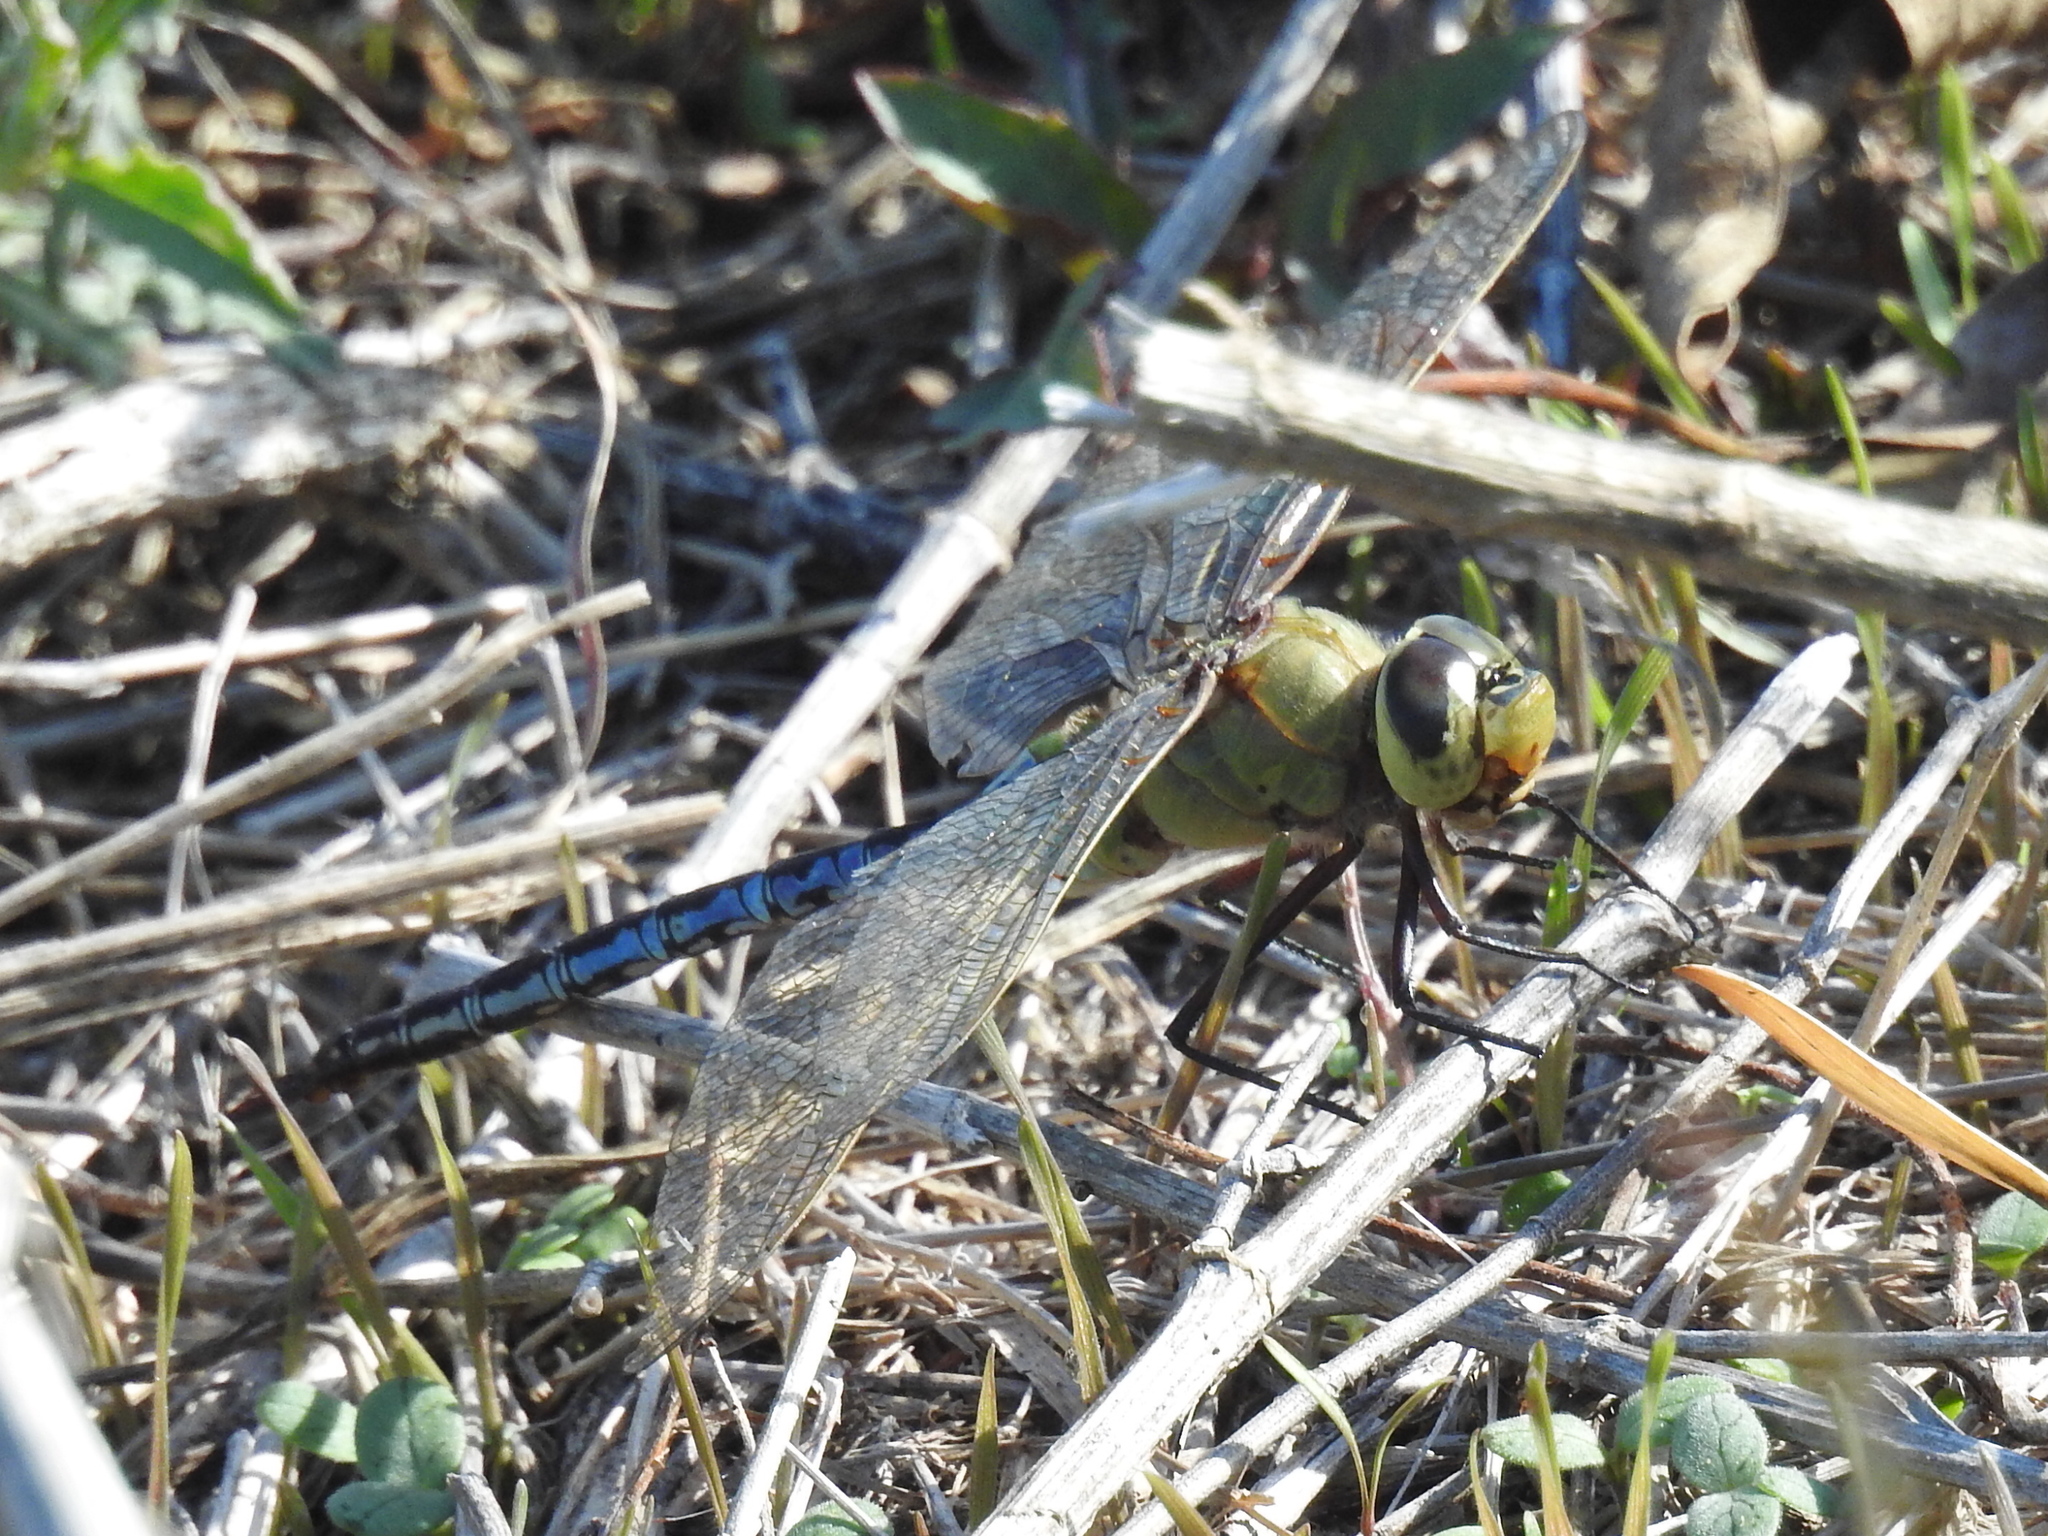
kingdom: Animalia
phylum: Arthropoda
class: Insecta
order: Odonata
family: Aeshnidae
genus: Anax
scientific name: Anax junius
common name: Common green darner
